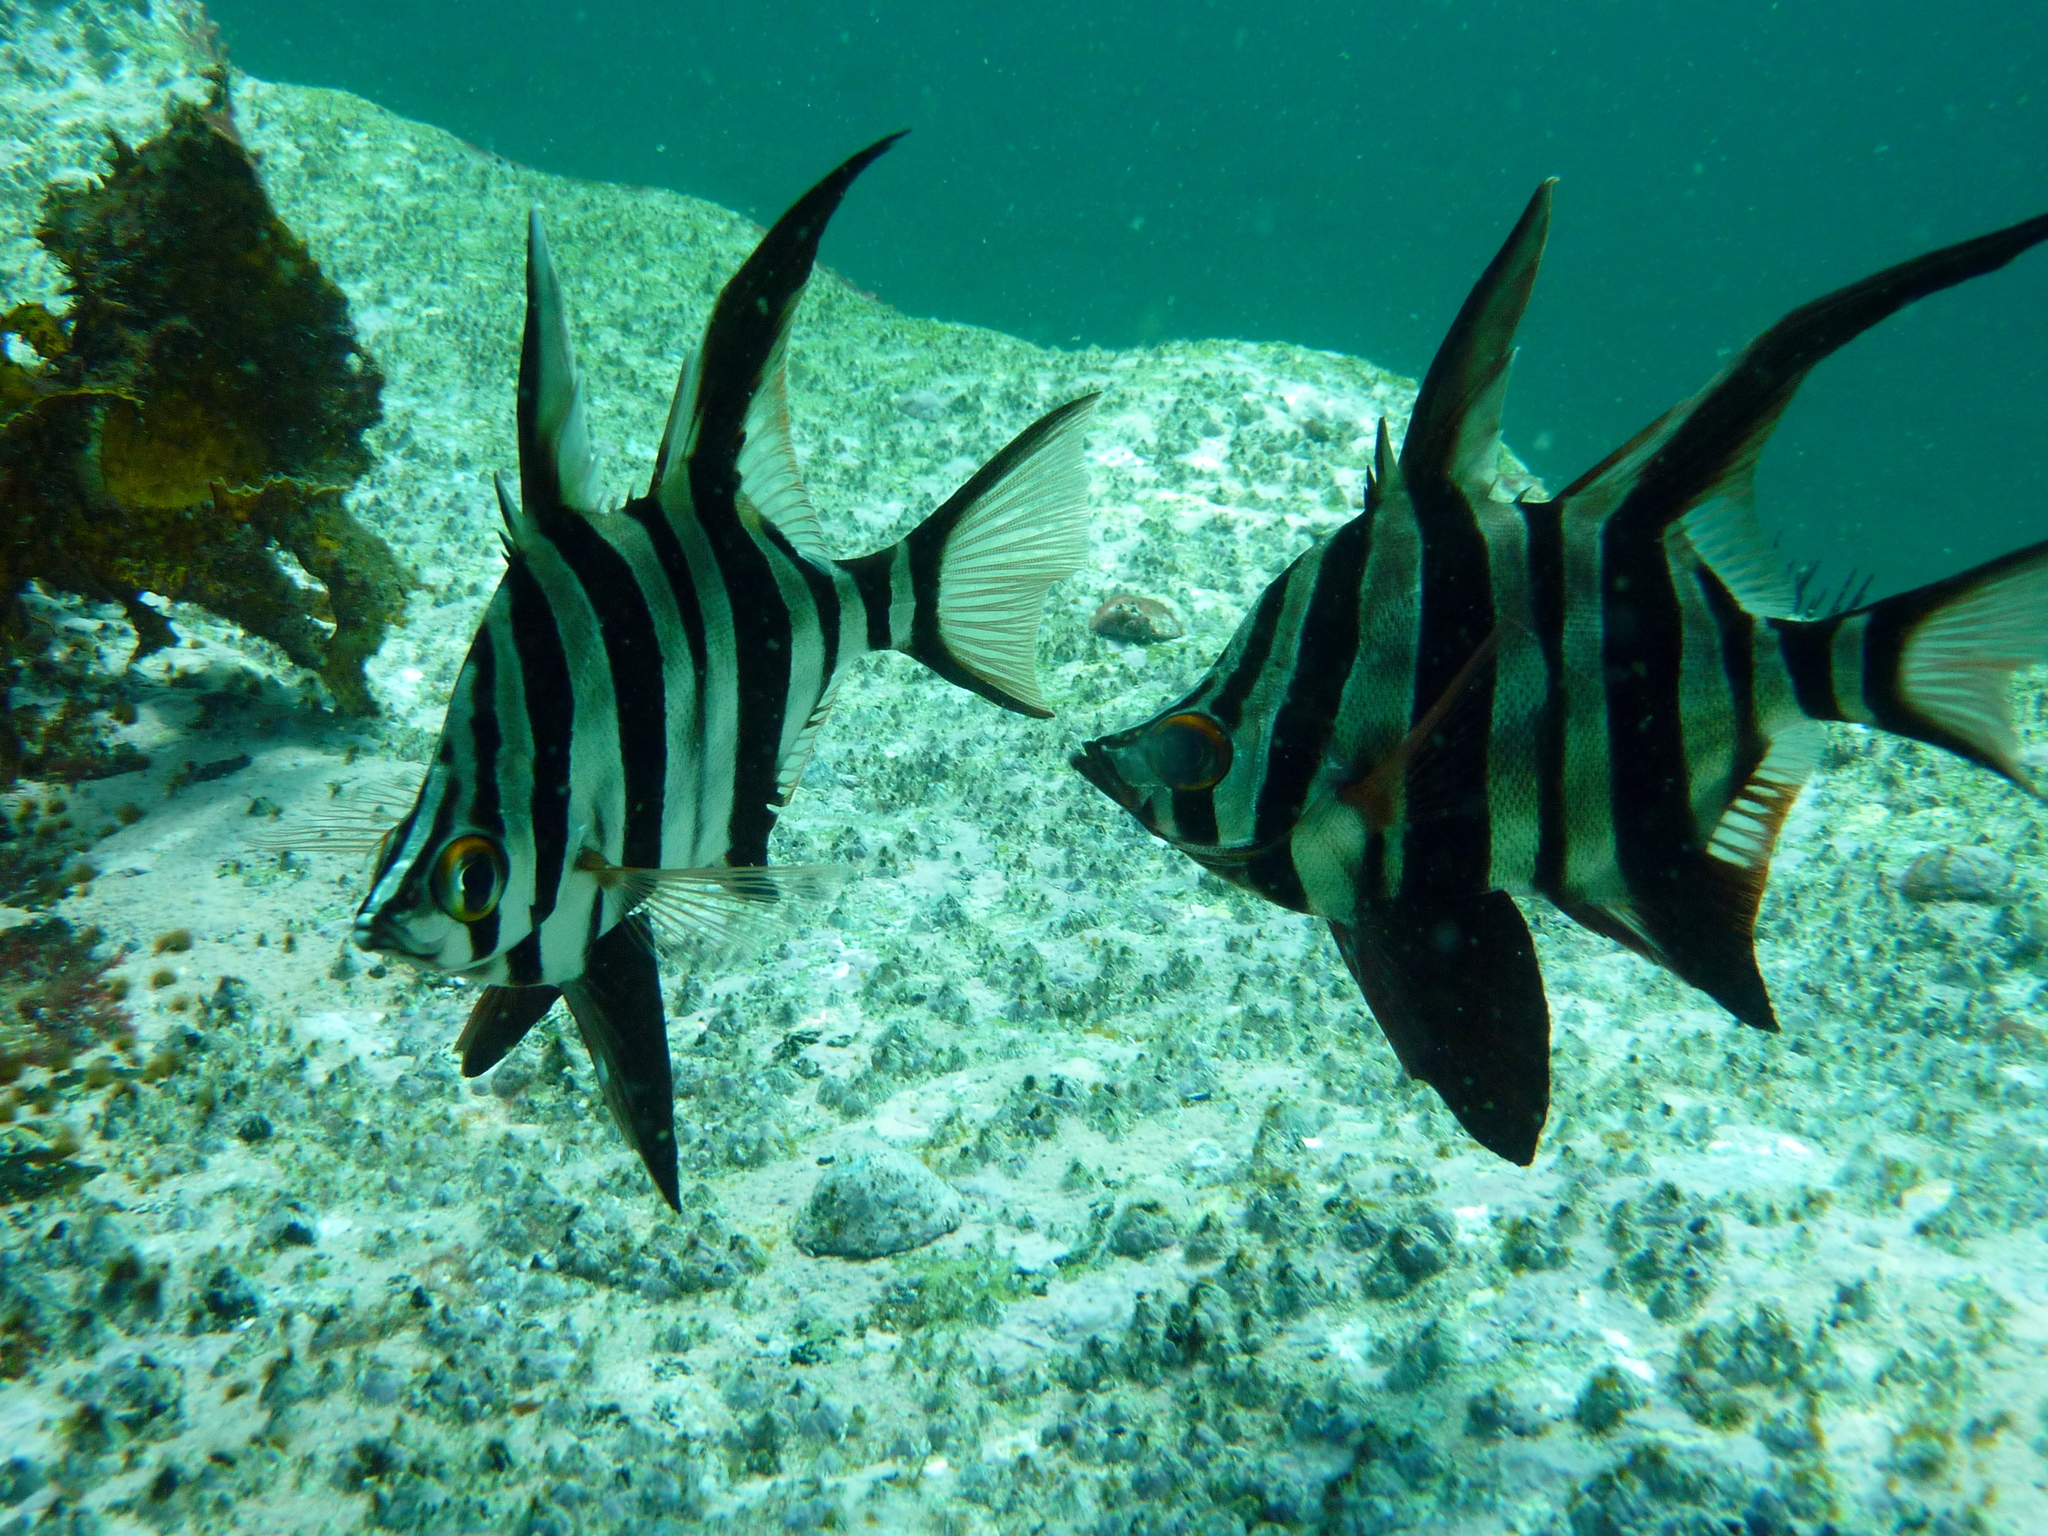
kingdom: Animalia
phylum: Chordata
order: Perciformes
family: Enoplosidae
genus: Enoplosus
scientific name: Enoplosus armatus
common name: Old wife
